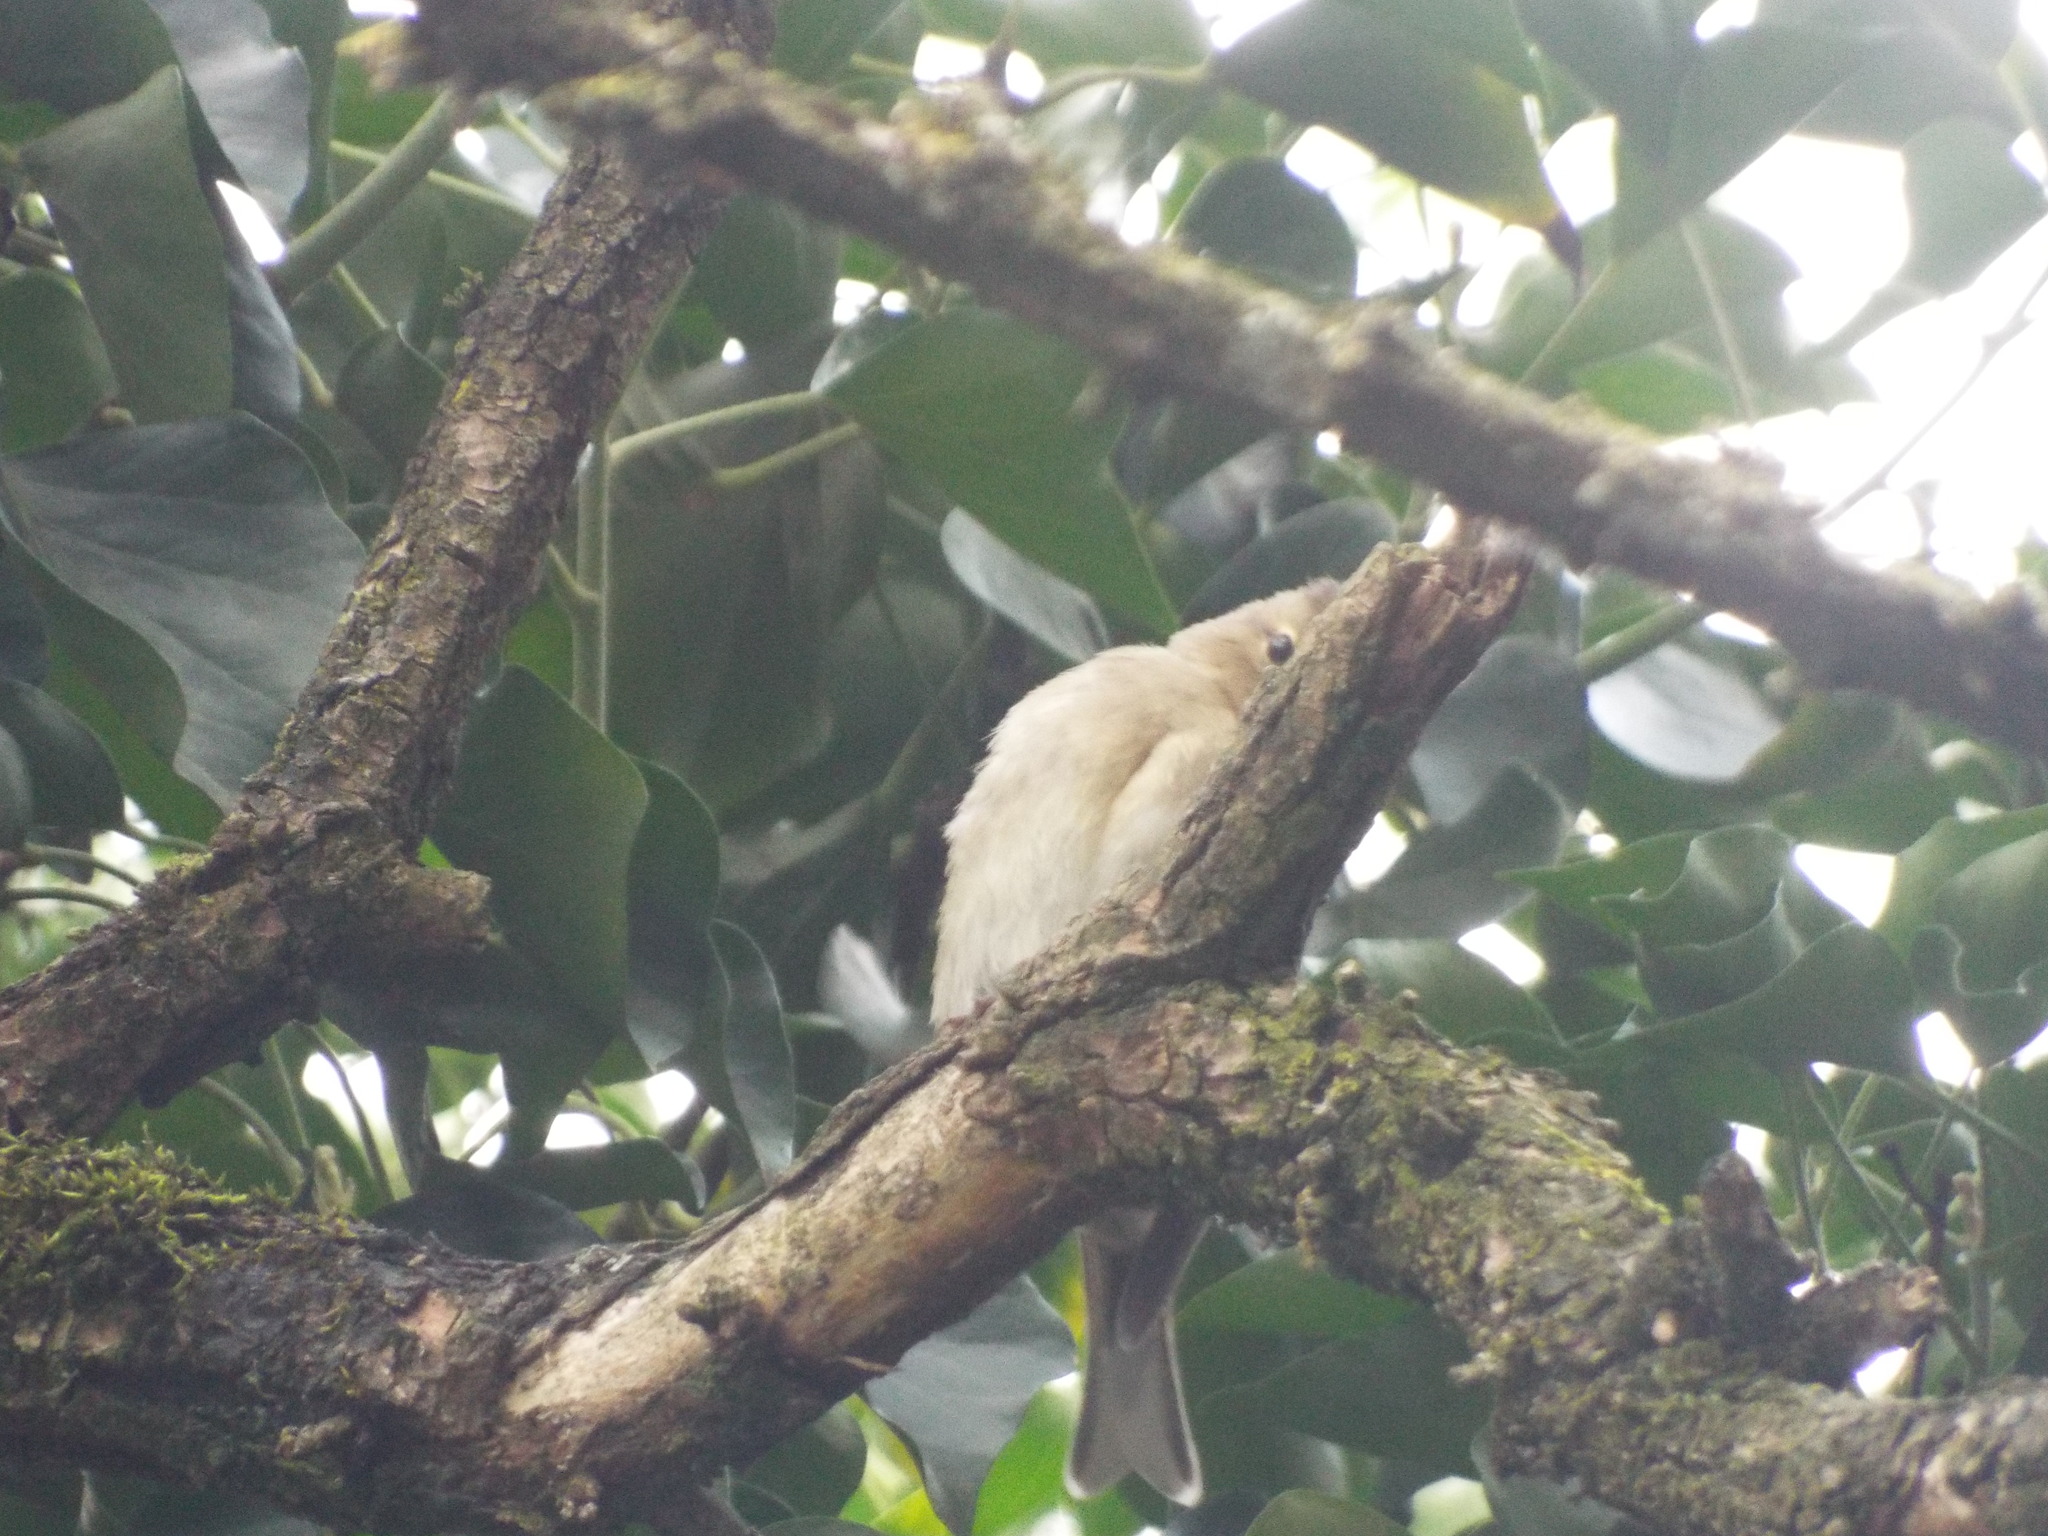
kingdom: Animalia
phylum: Chordata
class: Aves
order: Passeriformes
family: Fringillidae
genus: Fringilla
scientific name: Fringilla coelebs
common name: Common chaffinch
